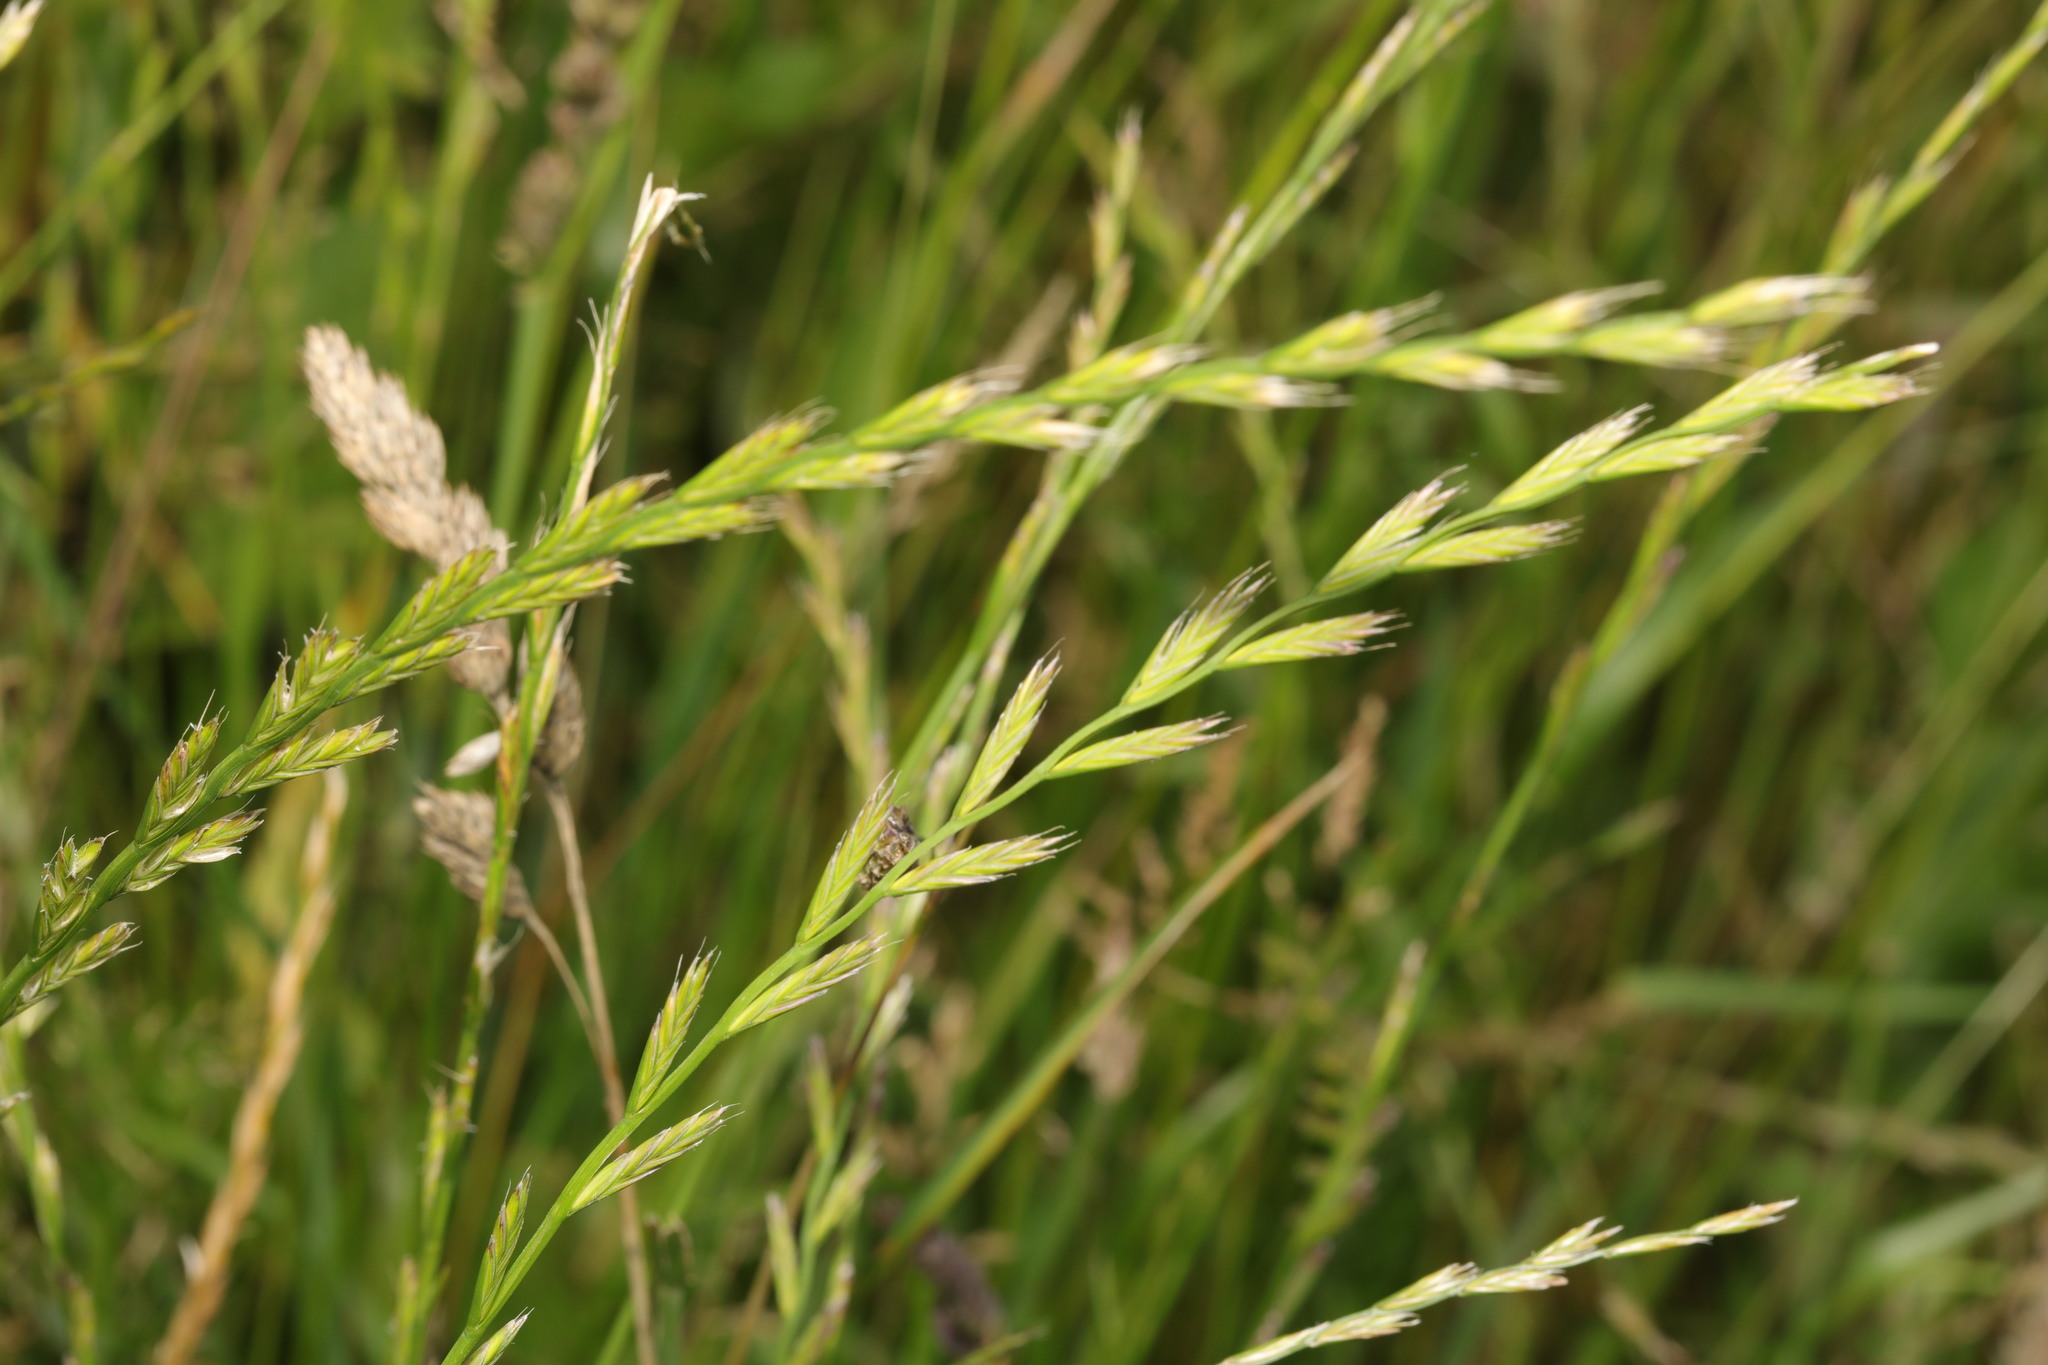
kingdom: Plantae
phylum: Tracheophyta
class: Liliopsida
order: Poales
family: Poaceae
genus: Lolium
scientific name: Lolium perenne
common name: Perennial ryegrass
